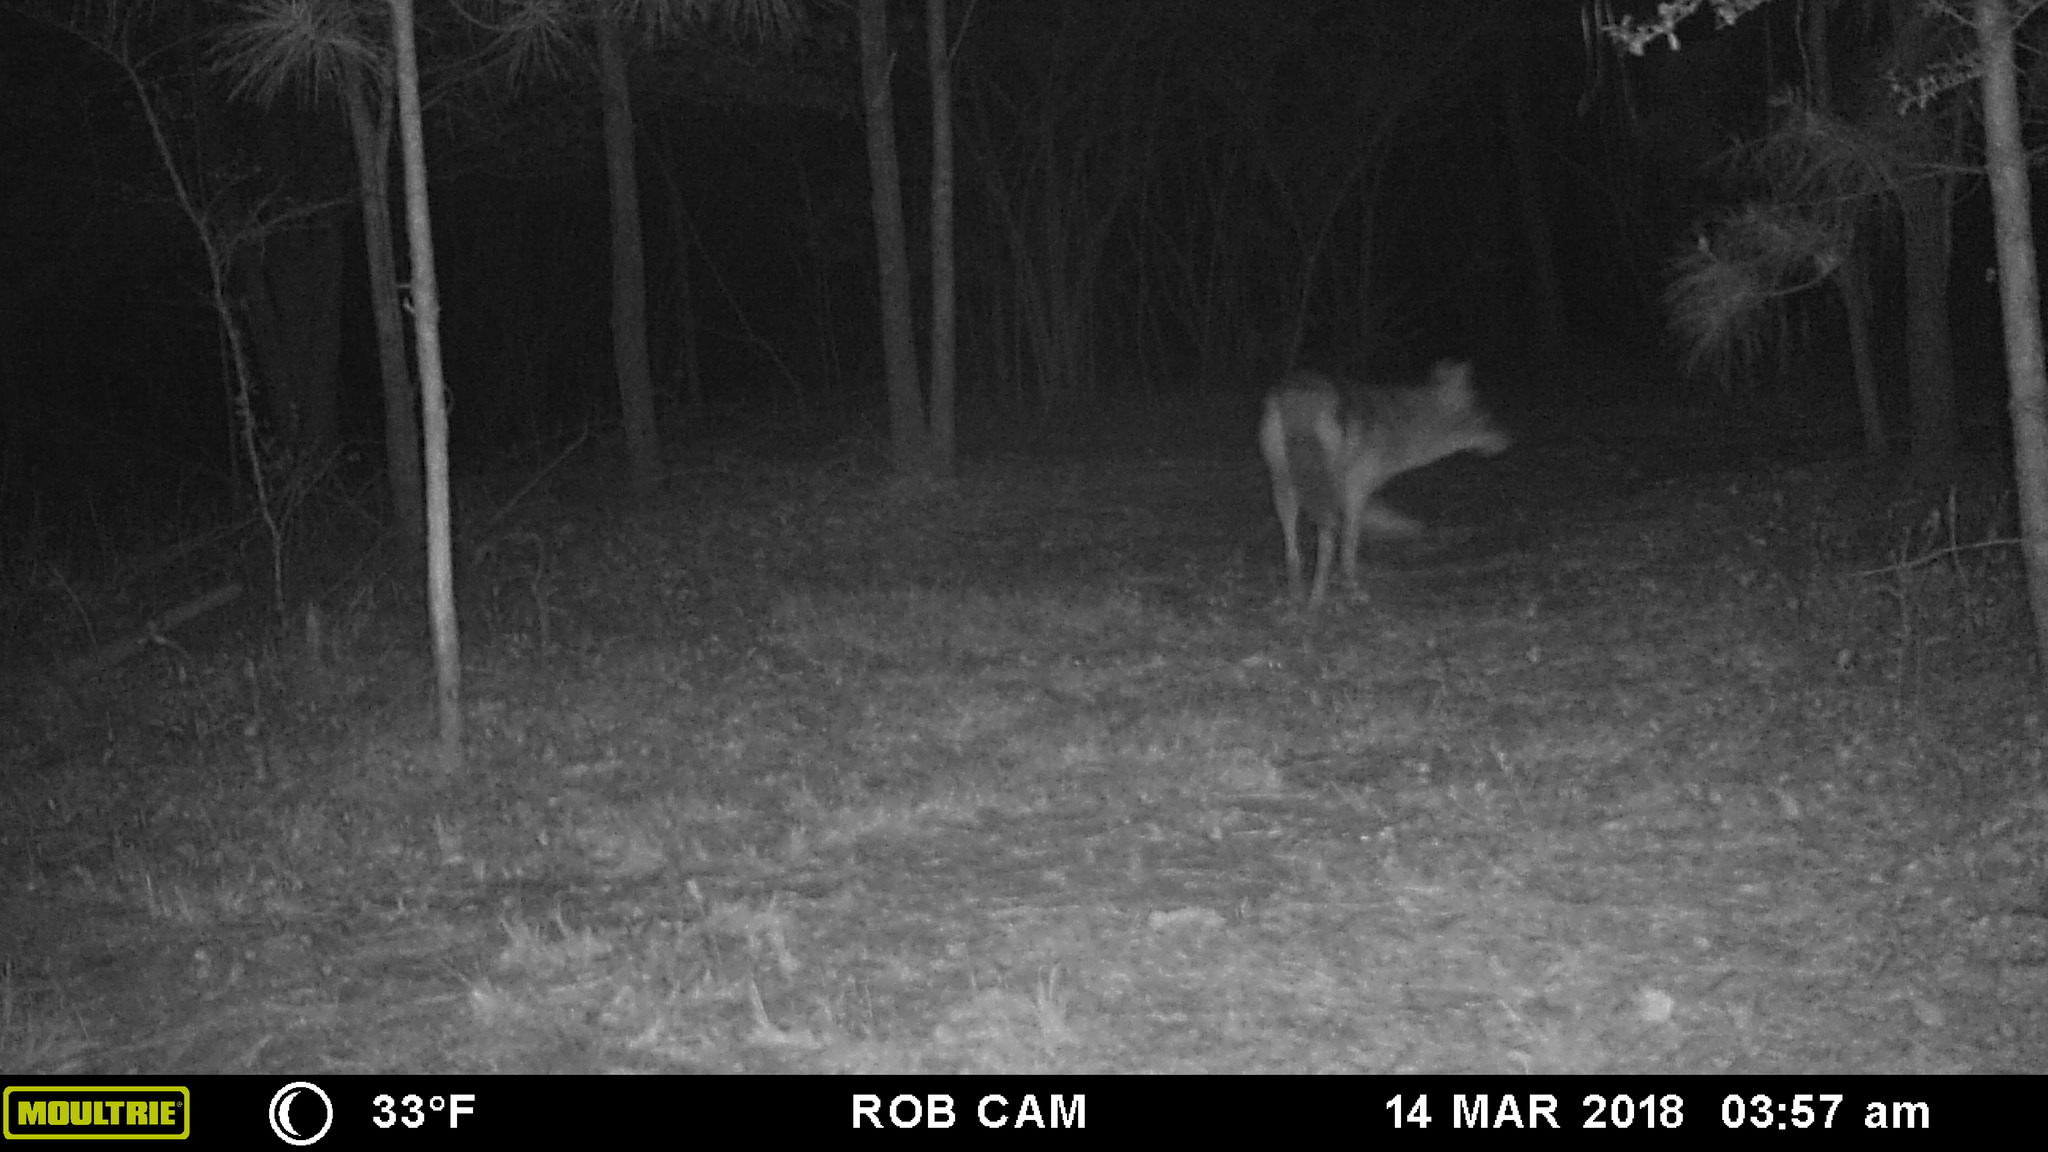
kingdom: Animalia
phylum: Chordata
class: Mammalia
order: Carnivora
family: Canidae
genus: Canis
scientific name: Canis latrans
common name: Coyote
